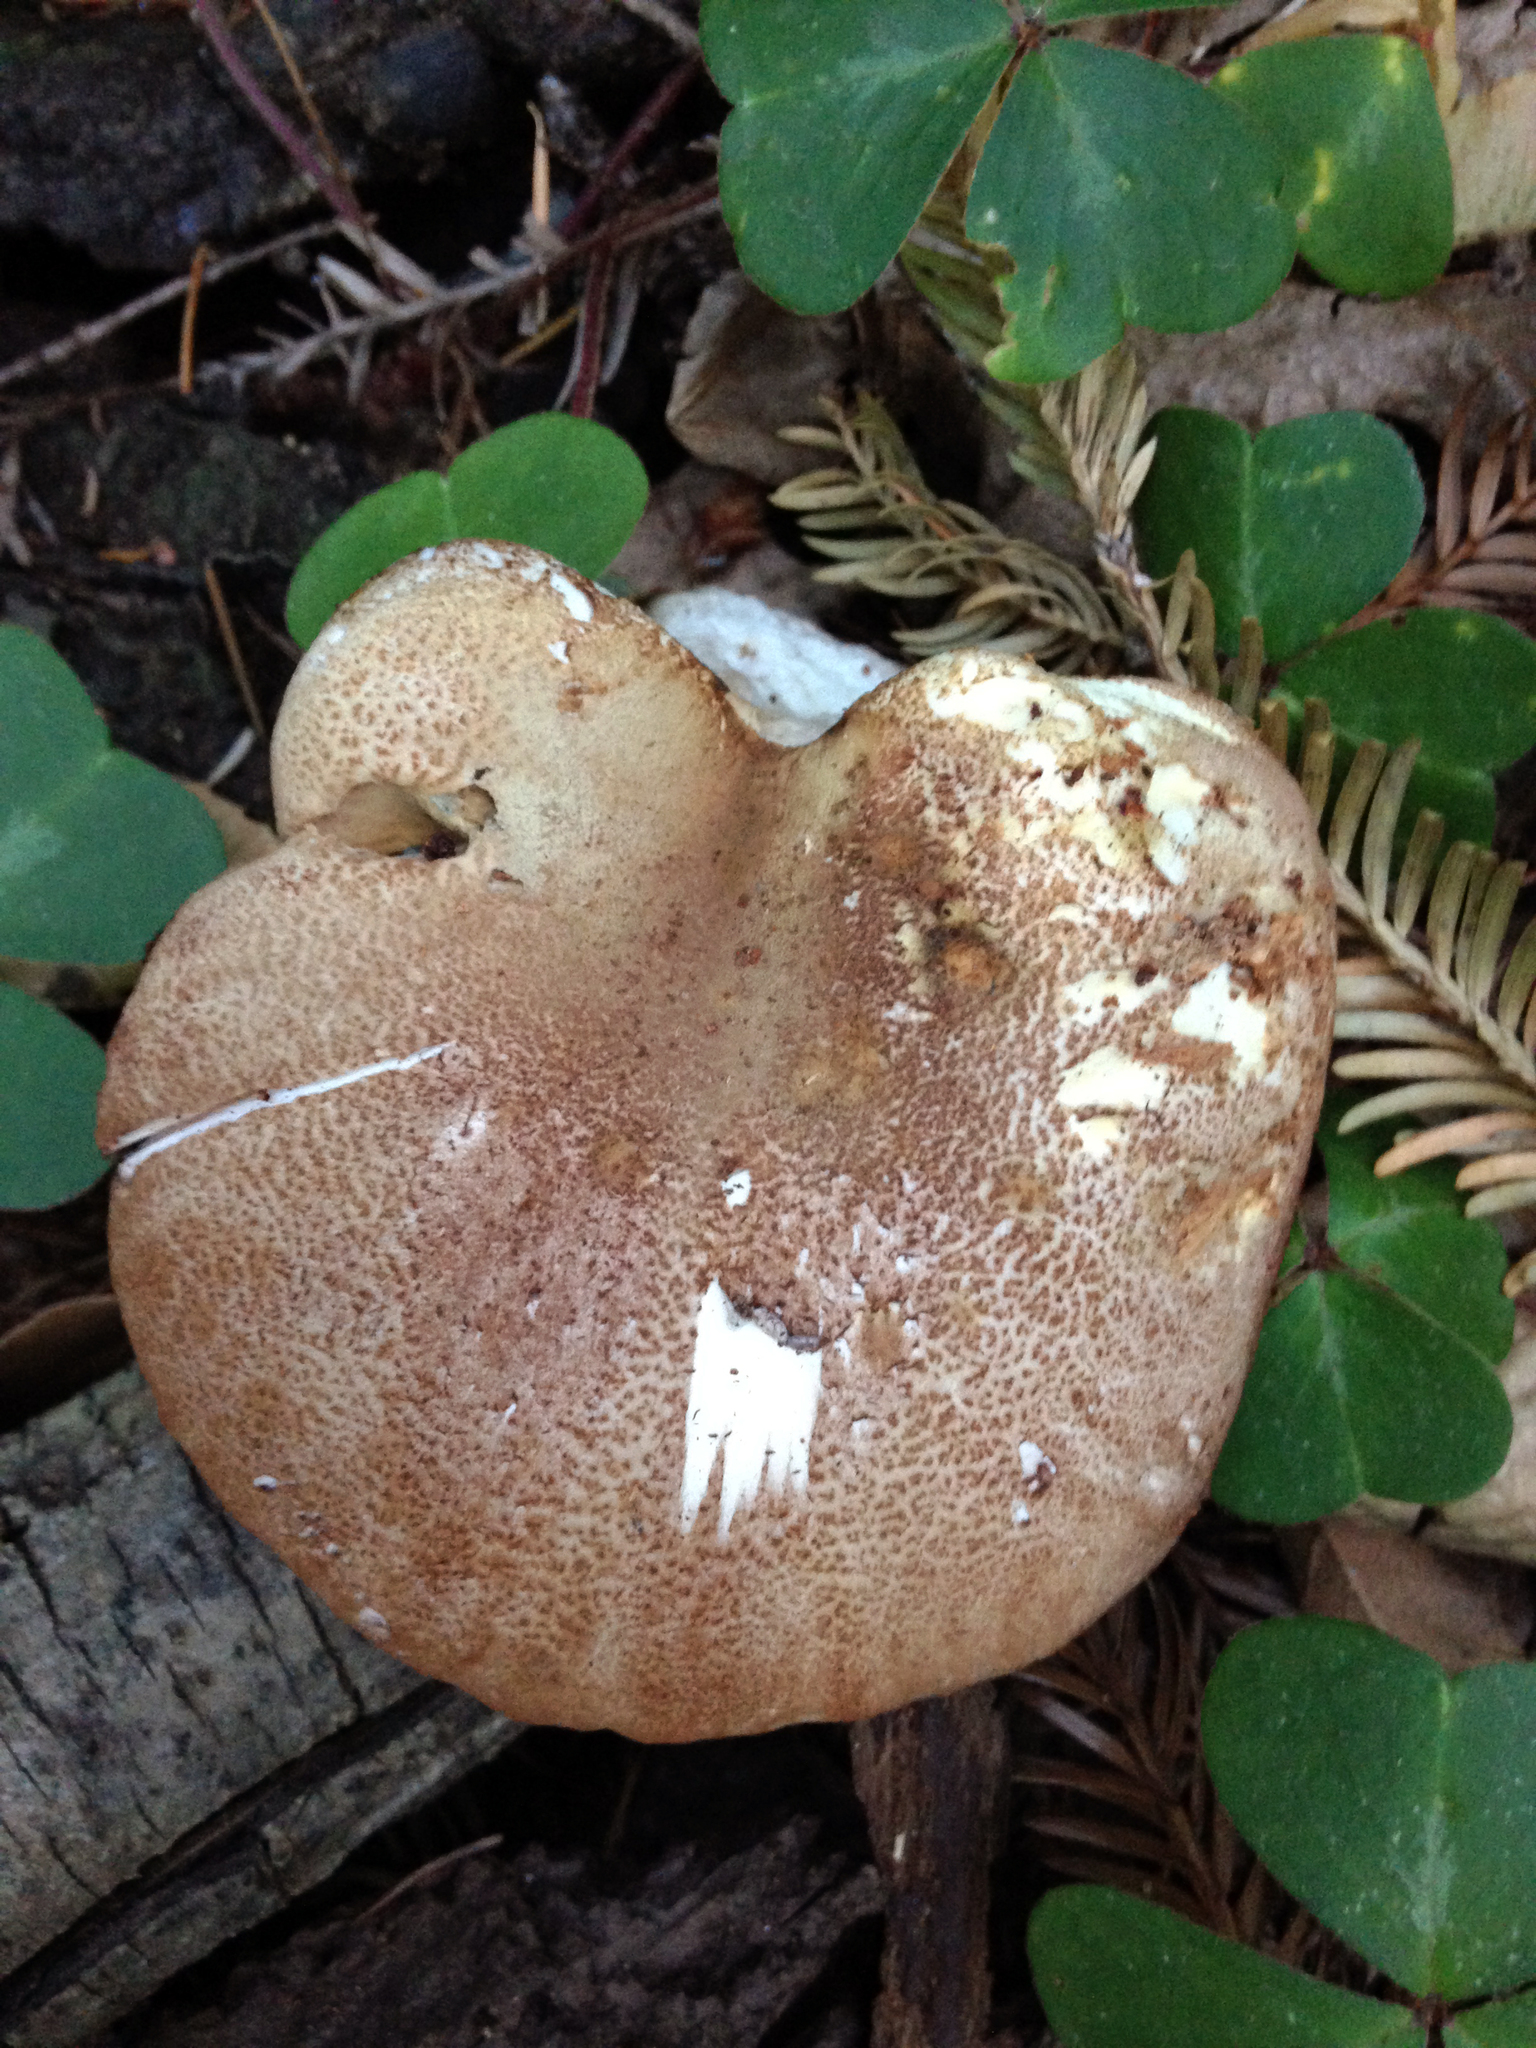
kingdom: Fungi
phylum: Basidiomycota
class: Agaricomycetes
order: Boletales
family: Tapinellaceae
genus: Tapinella
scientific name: Tapinella atrotomentosa
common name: Velvet rollrim
